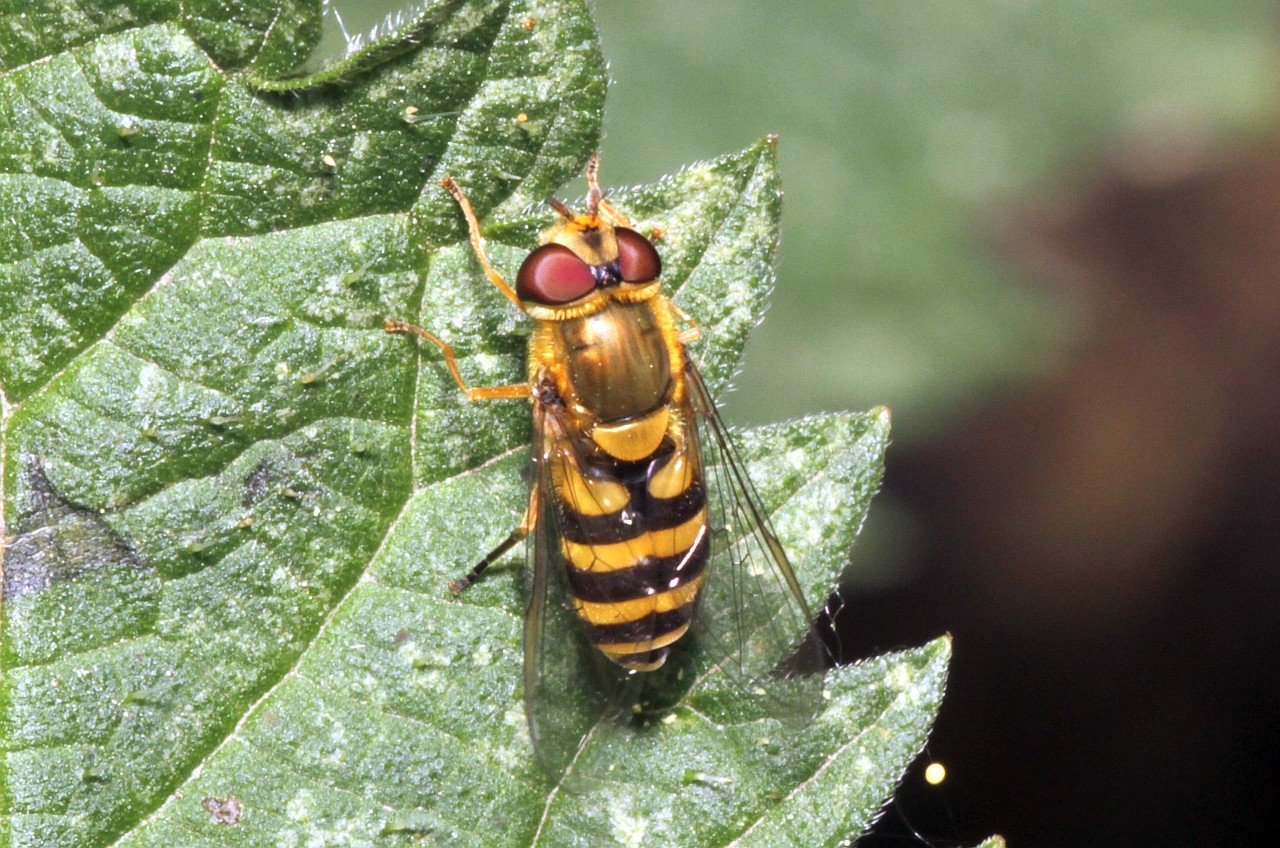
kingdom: Animalia
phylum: Arthropoda
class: Insecta
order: Diptera
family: Syrphidae
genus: Syrphus
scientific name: Syrphus
